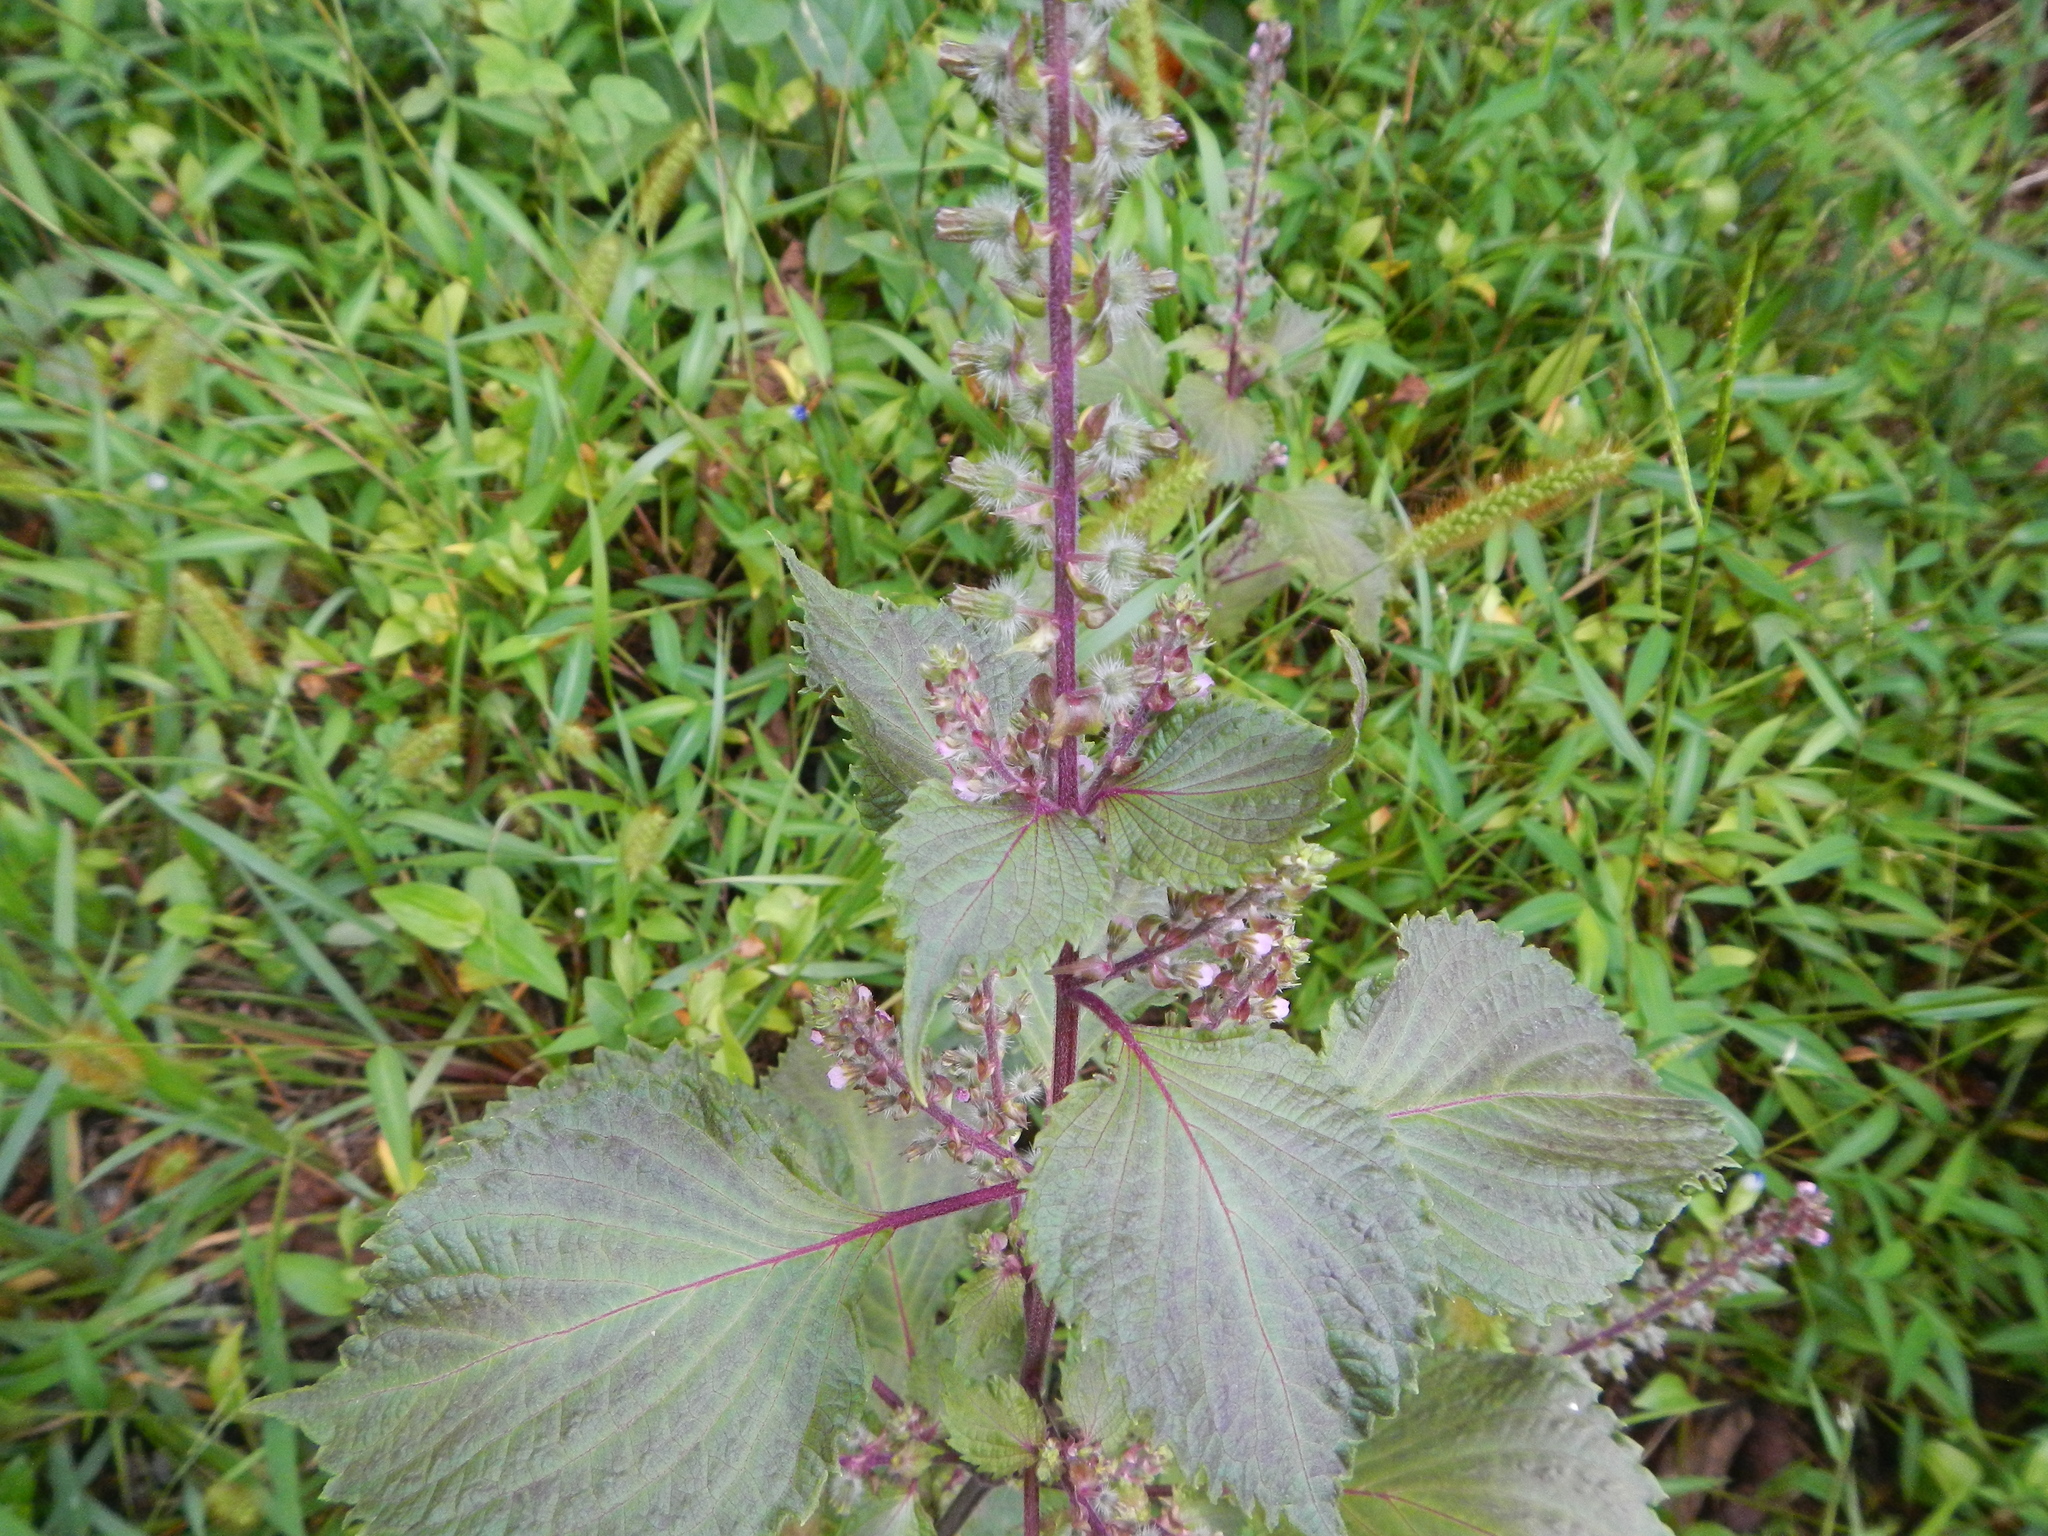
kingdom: Plantae
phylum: Tracheophyta
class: Magnoliopsida
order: Lamiales
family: Lamiaceae
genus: Perilla
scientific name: Perilla frutescens
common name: Perilla
